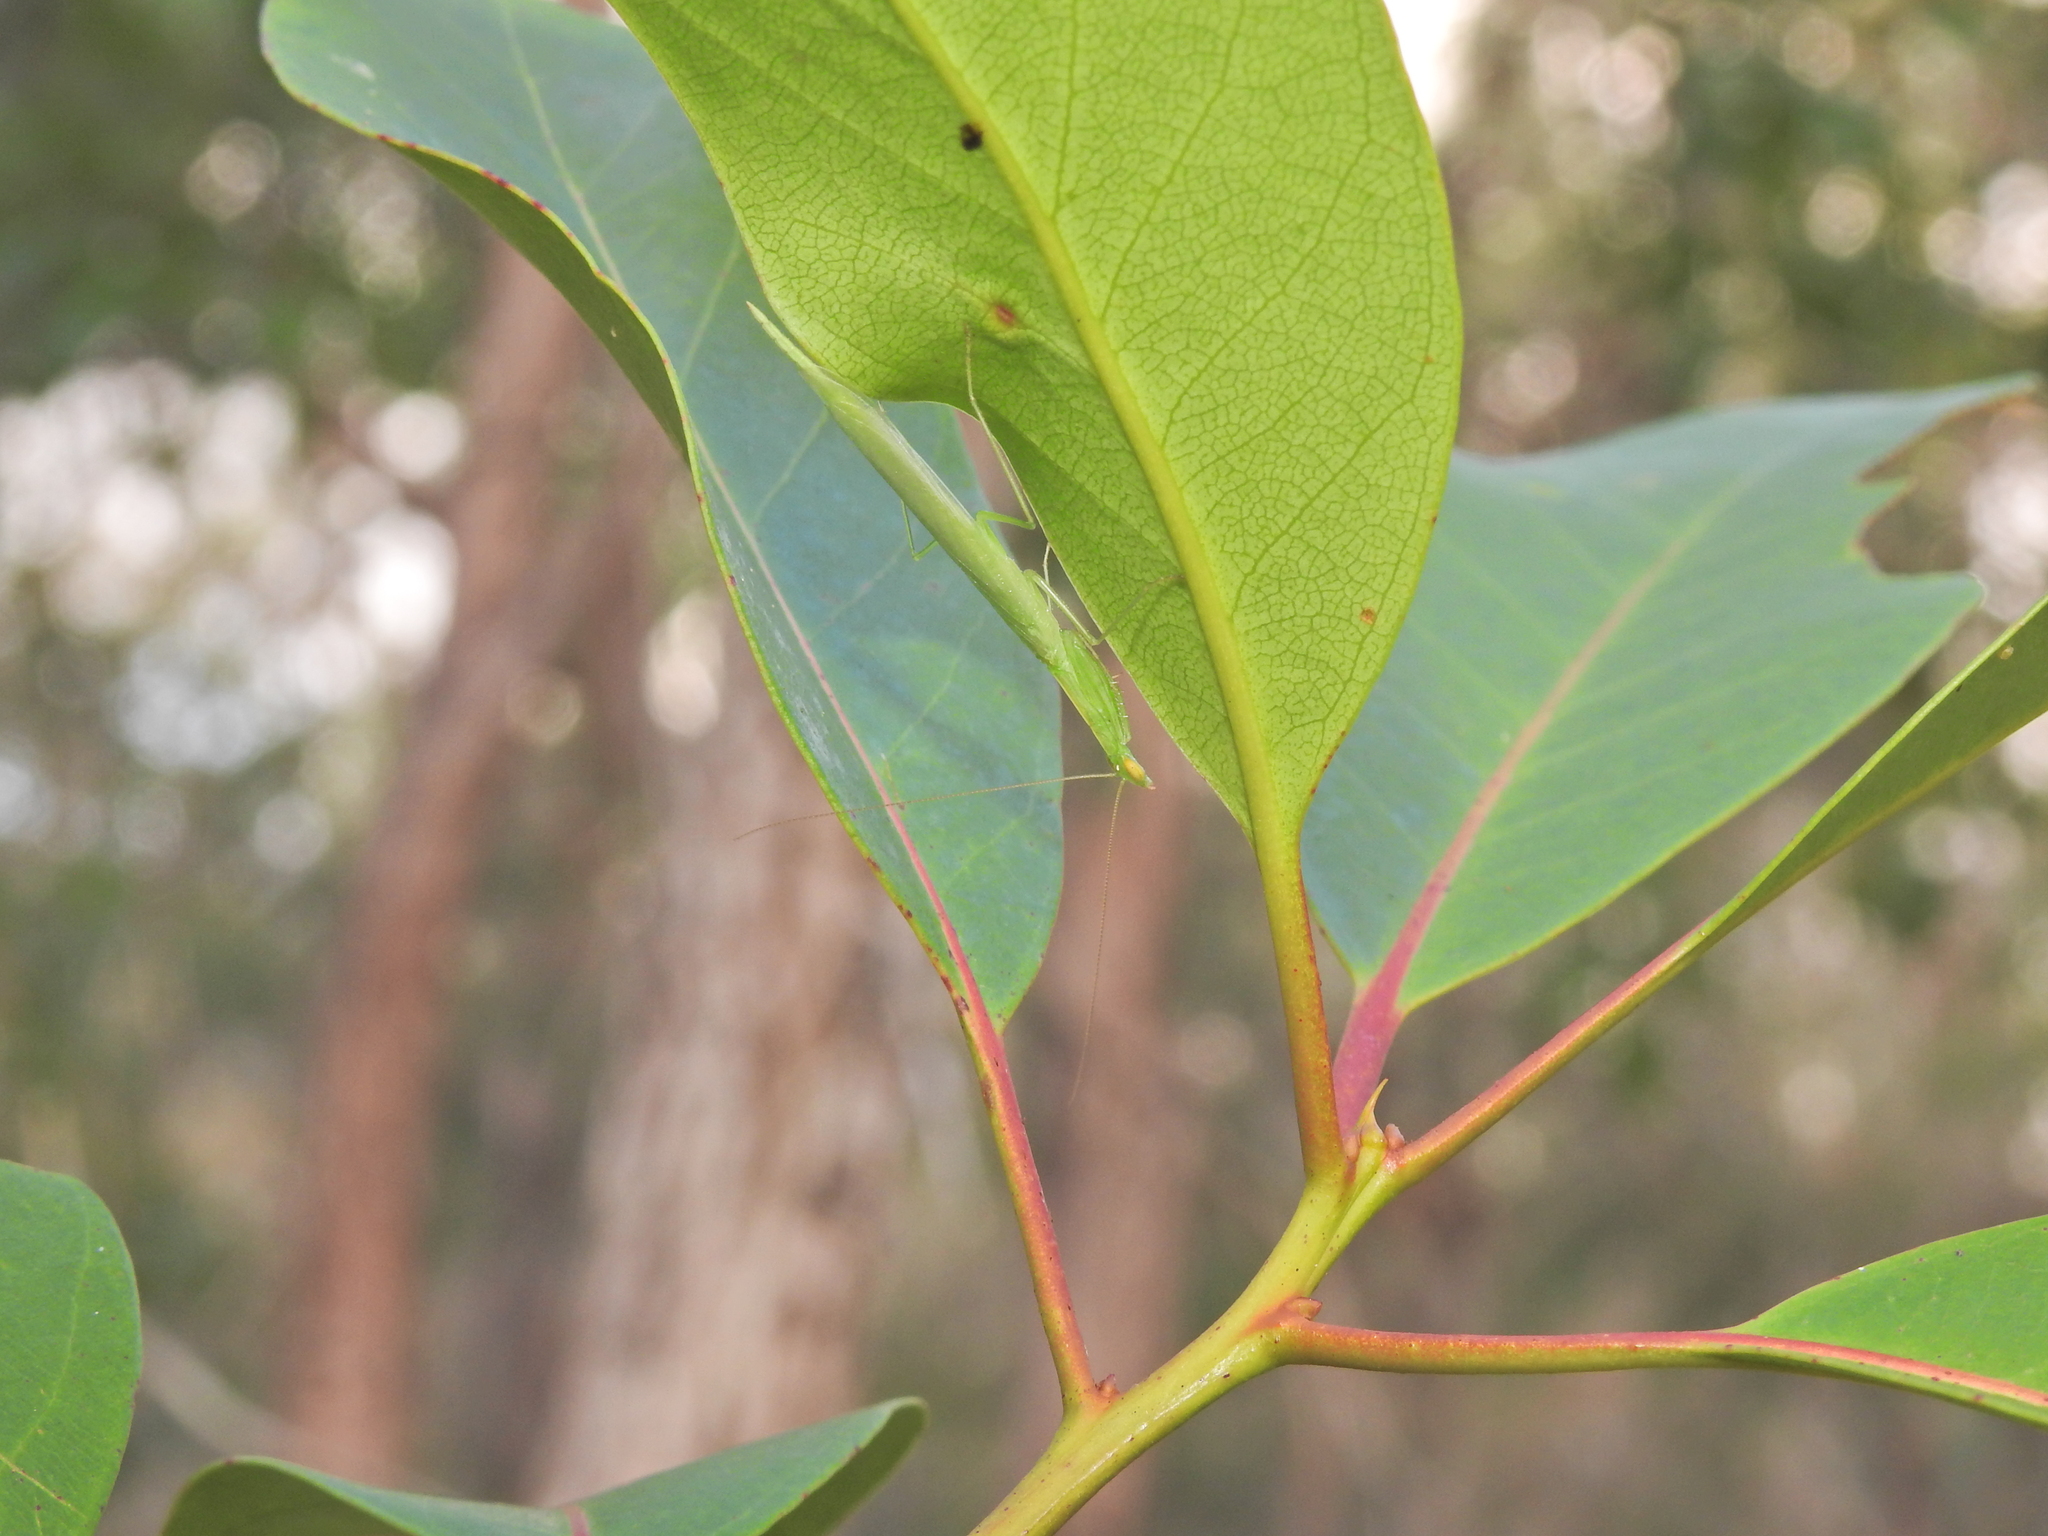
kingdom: Animalia
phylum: Arthropoda
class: Insecta
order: Mantodea
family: Nanomantidae
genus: Kongobatha
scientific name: Kongobatha diademata
